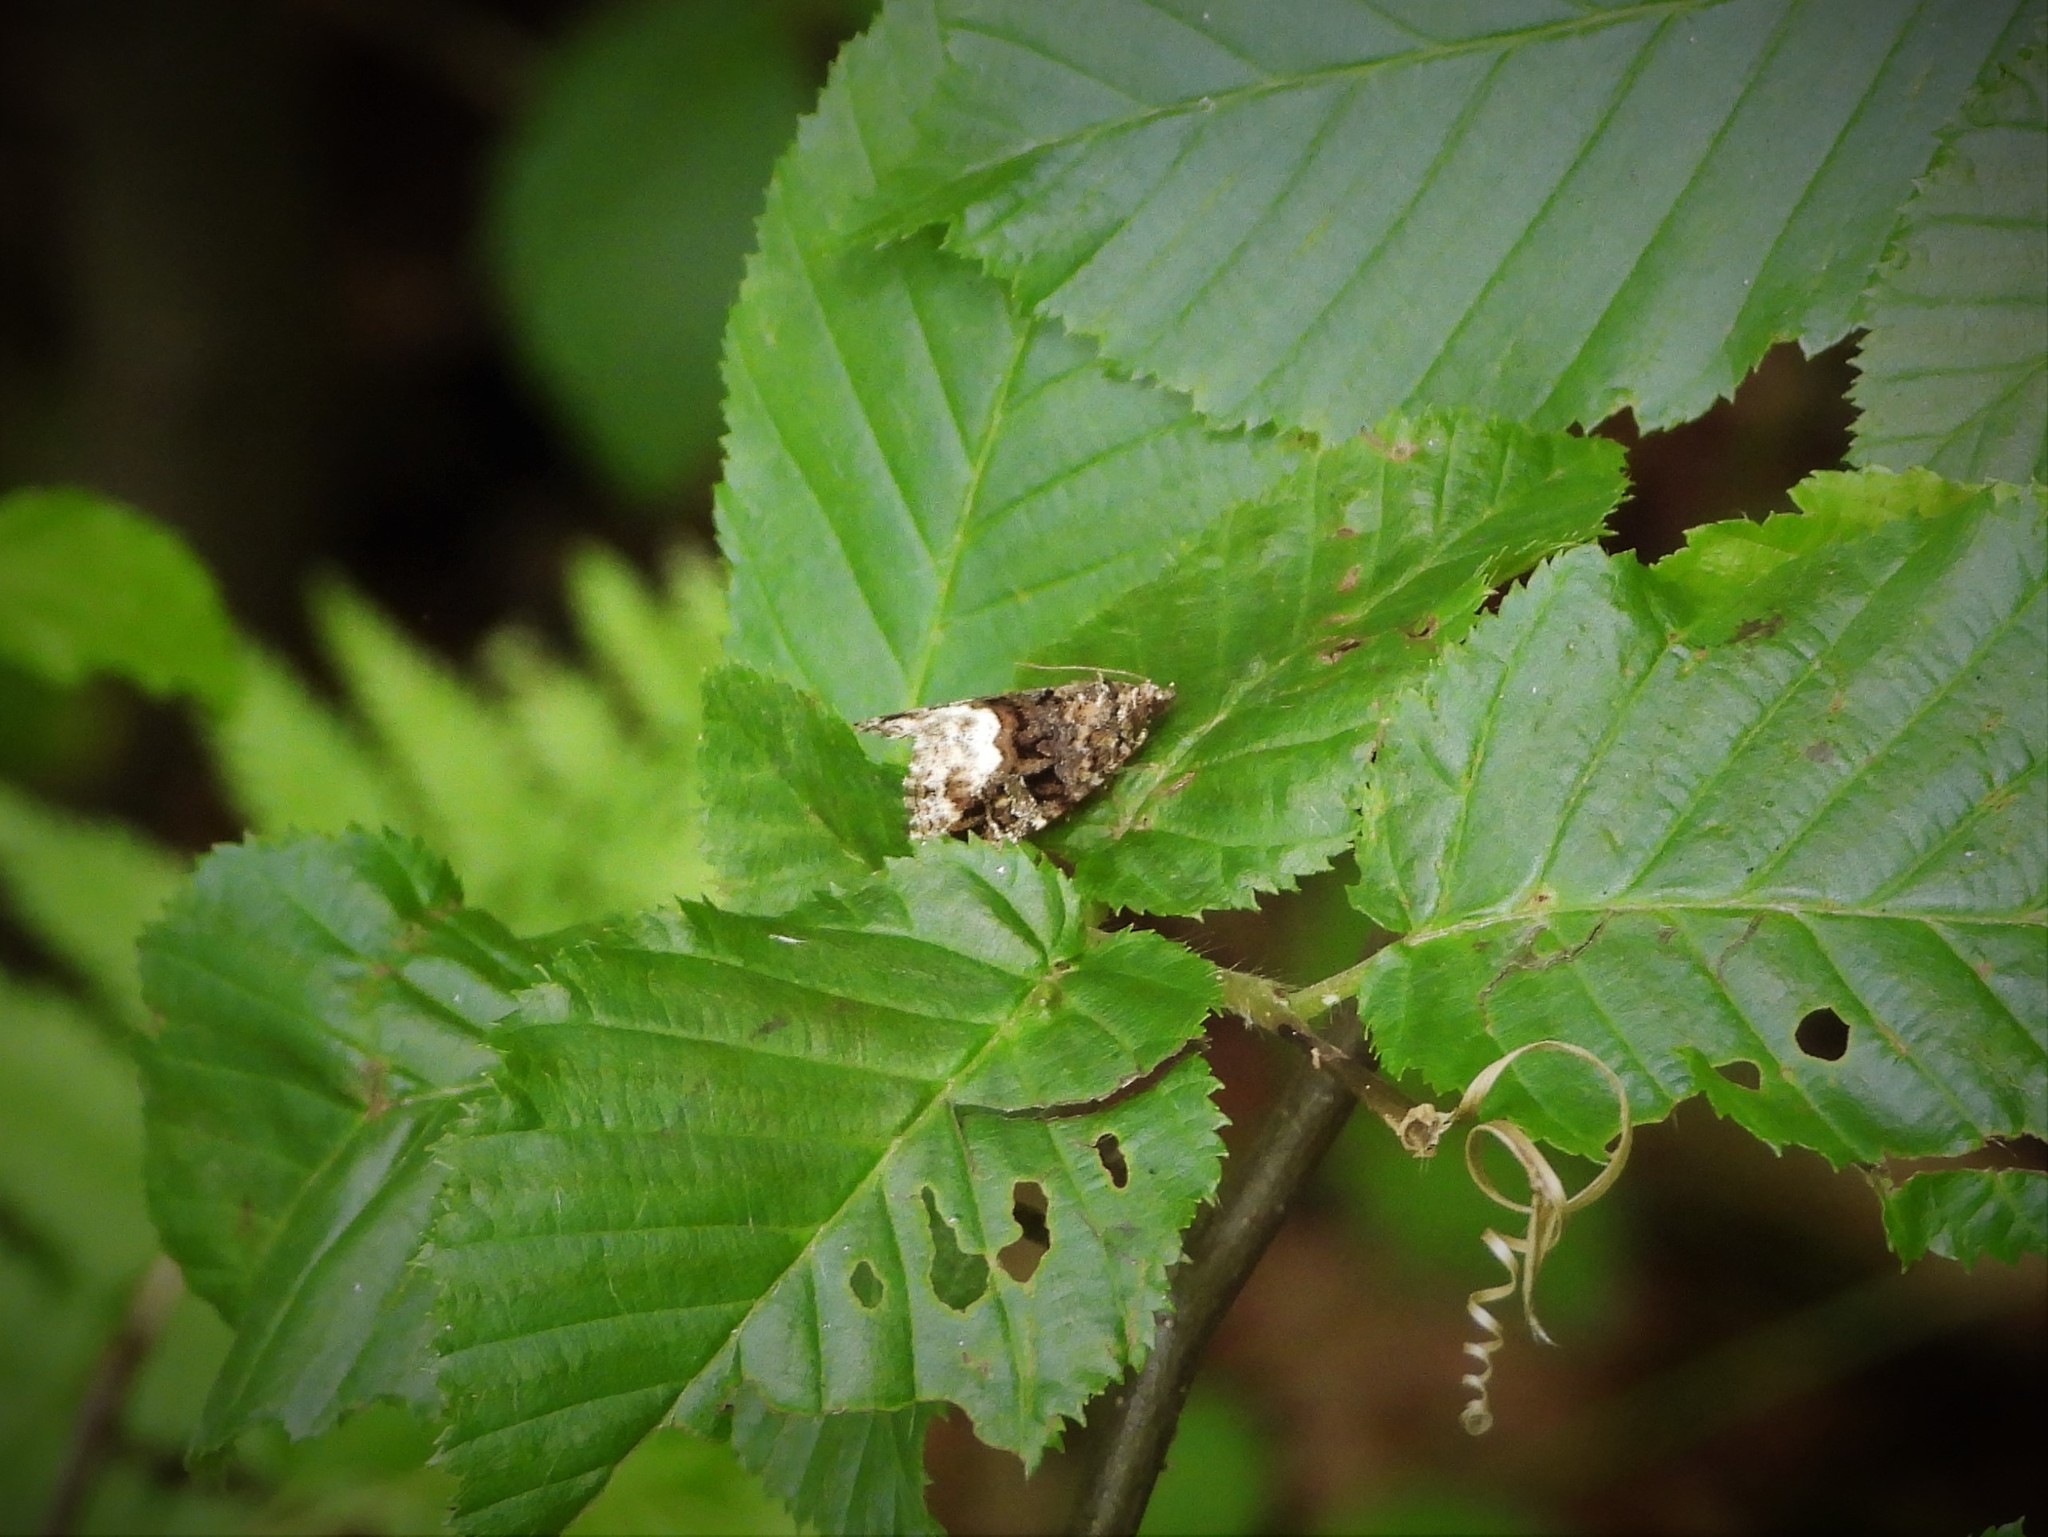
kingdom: Animalia
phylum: Arthropoda
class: Insecta
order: Lepidoptera
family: Noctuidae
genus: Deltote
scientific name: Deltote pygarga
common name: Marbled white spot
